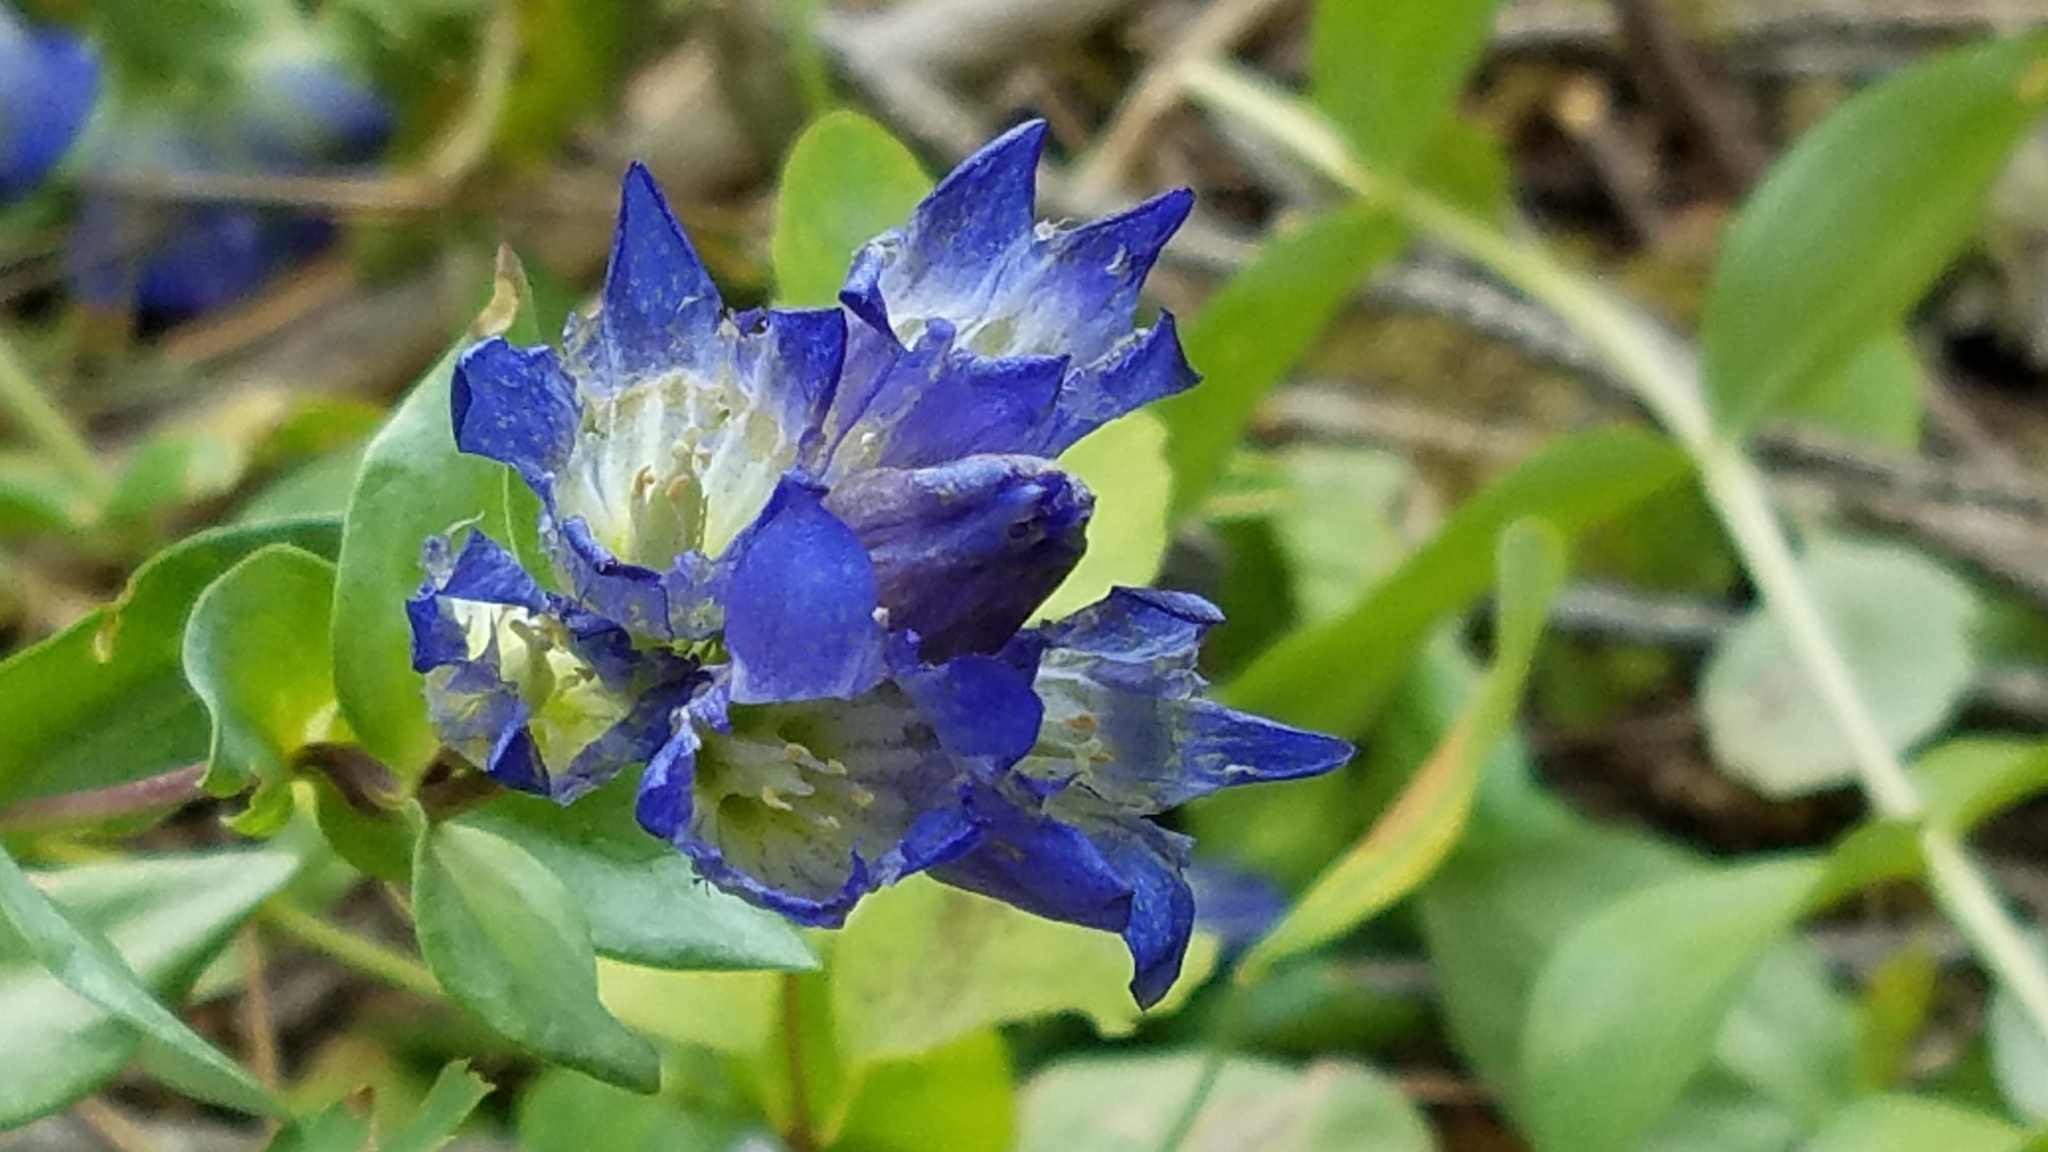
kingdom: Plantae
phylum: Tracheophyta
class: Magnoliopsida
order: Gentianales
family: Gentianaceae
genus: Gentiana
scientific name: Gentiana affinis
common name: Rocky mountain gentian
